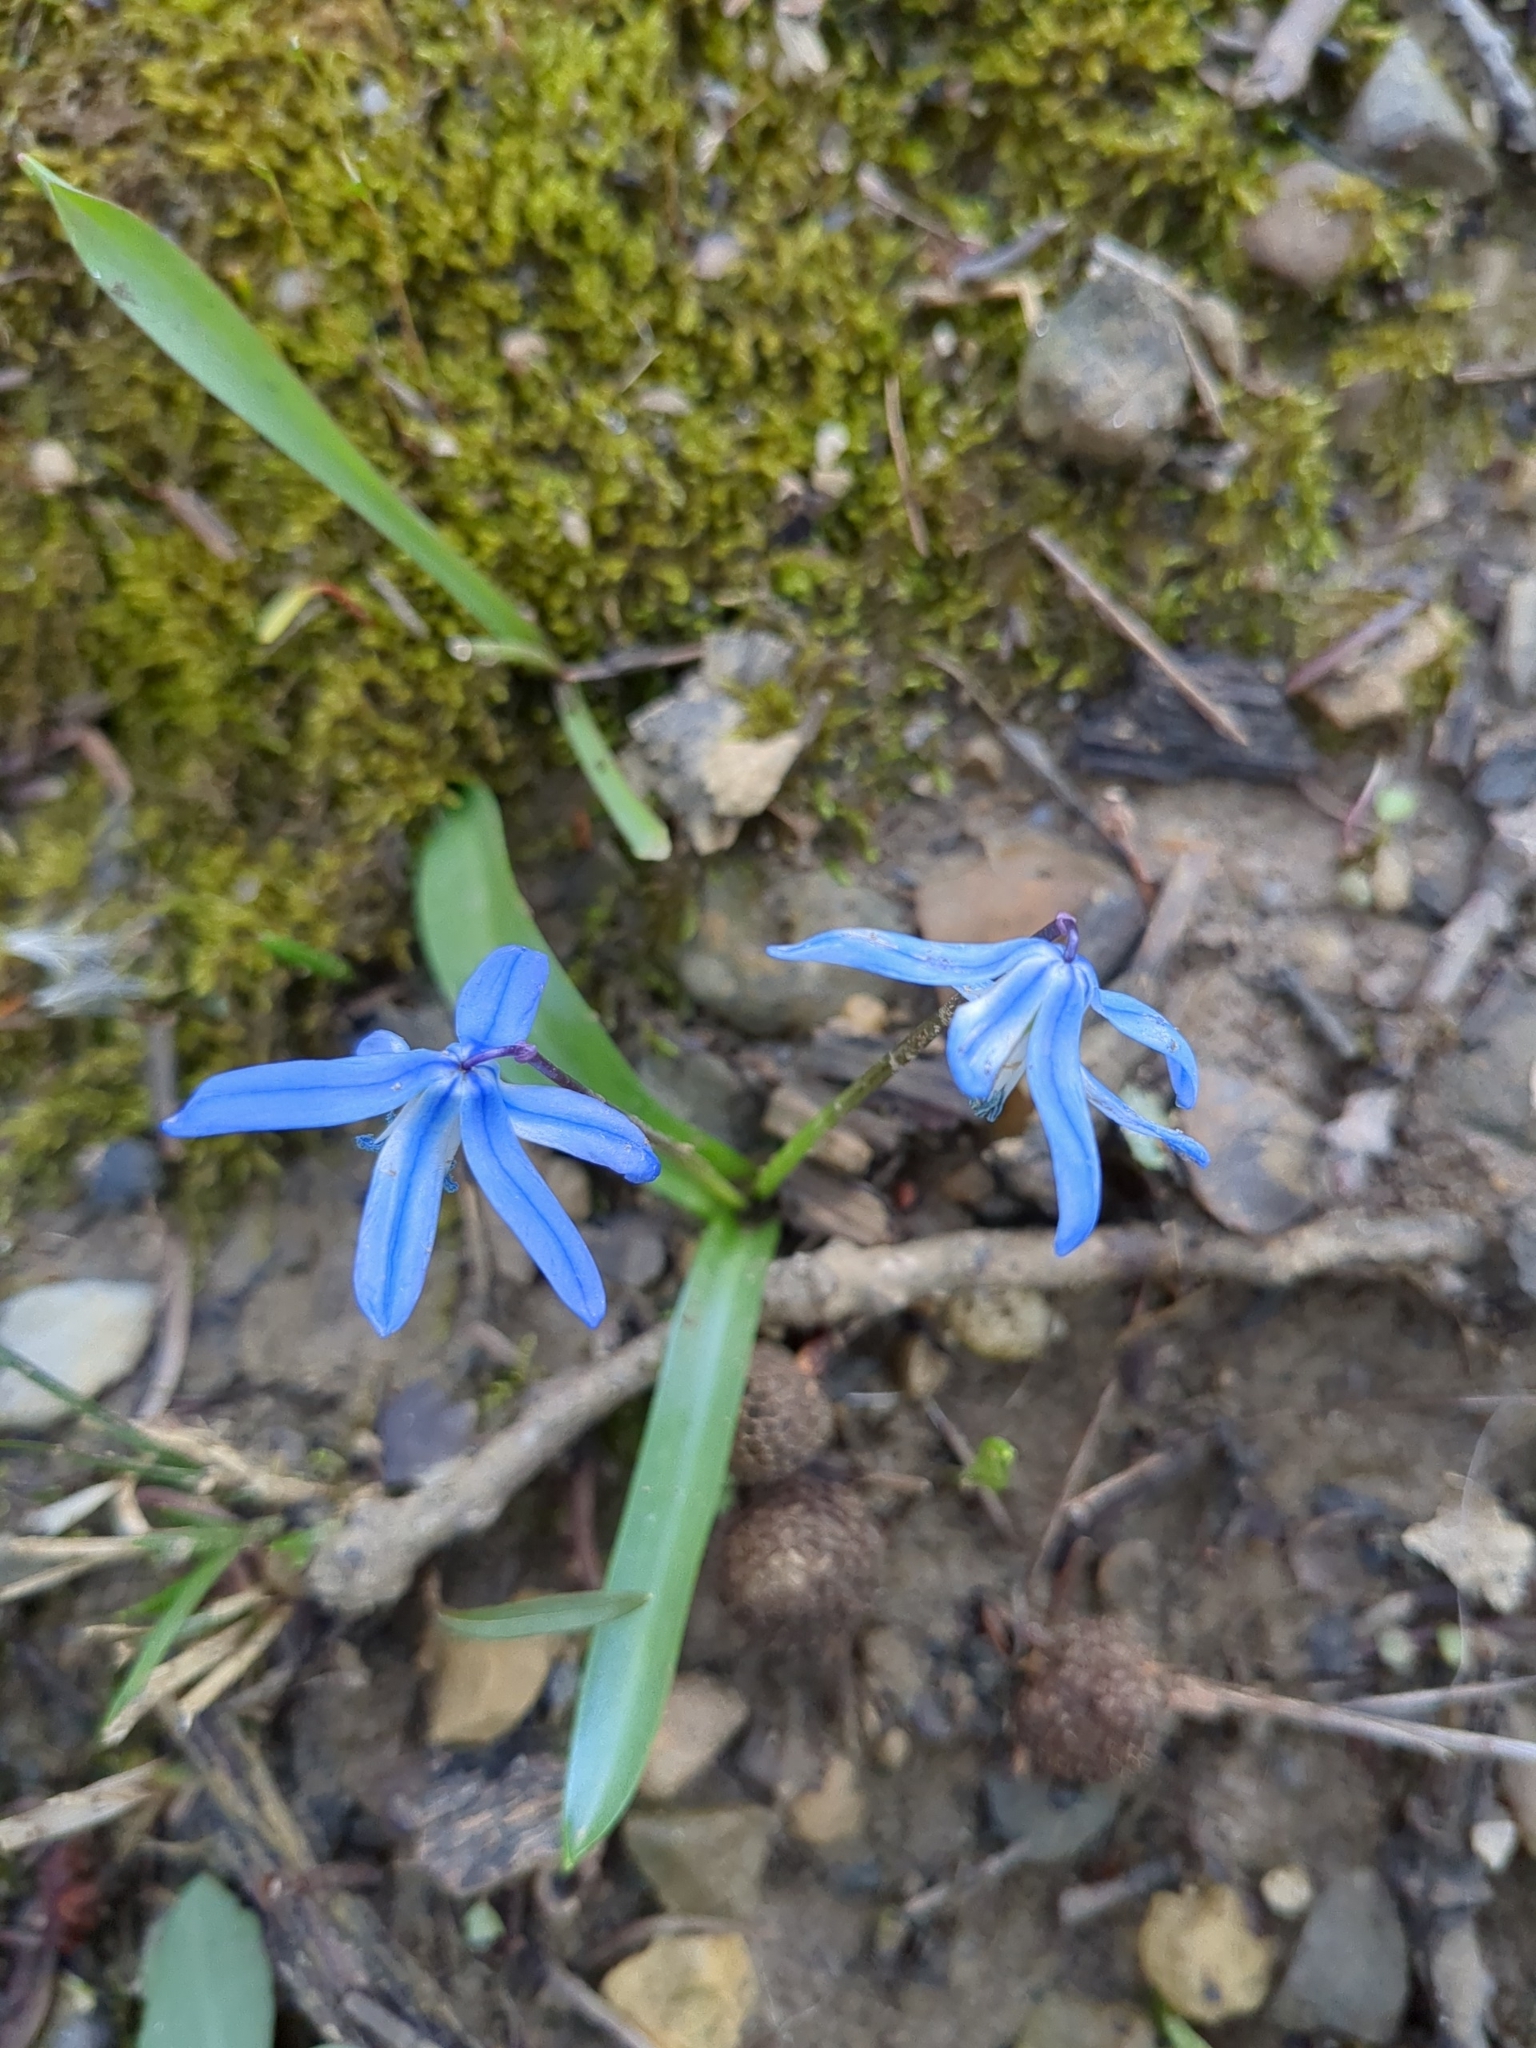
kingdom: Plantae
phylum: Tracheophyta
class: Liliopsida
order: Asparagales
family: Asparagaceae
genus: Scilla
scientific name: Scilla siberica
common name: Siberian squill
